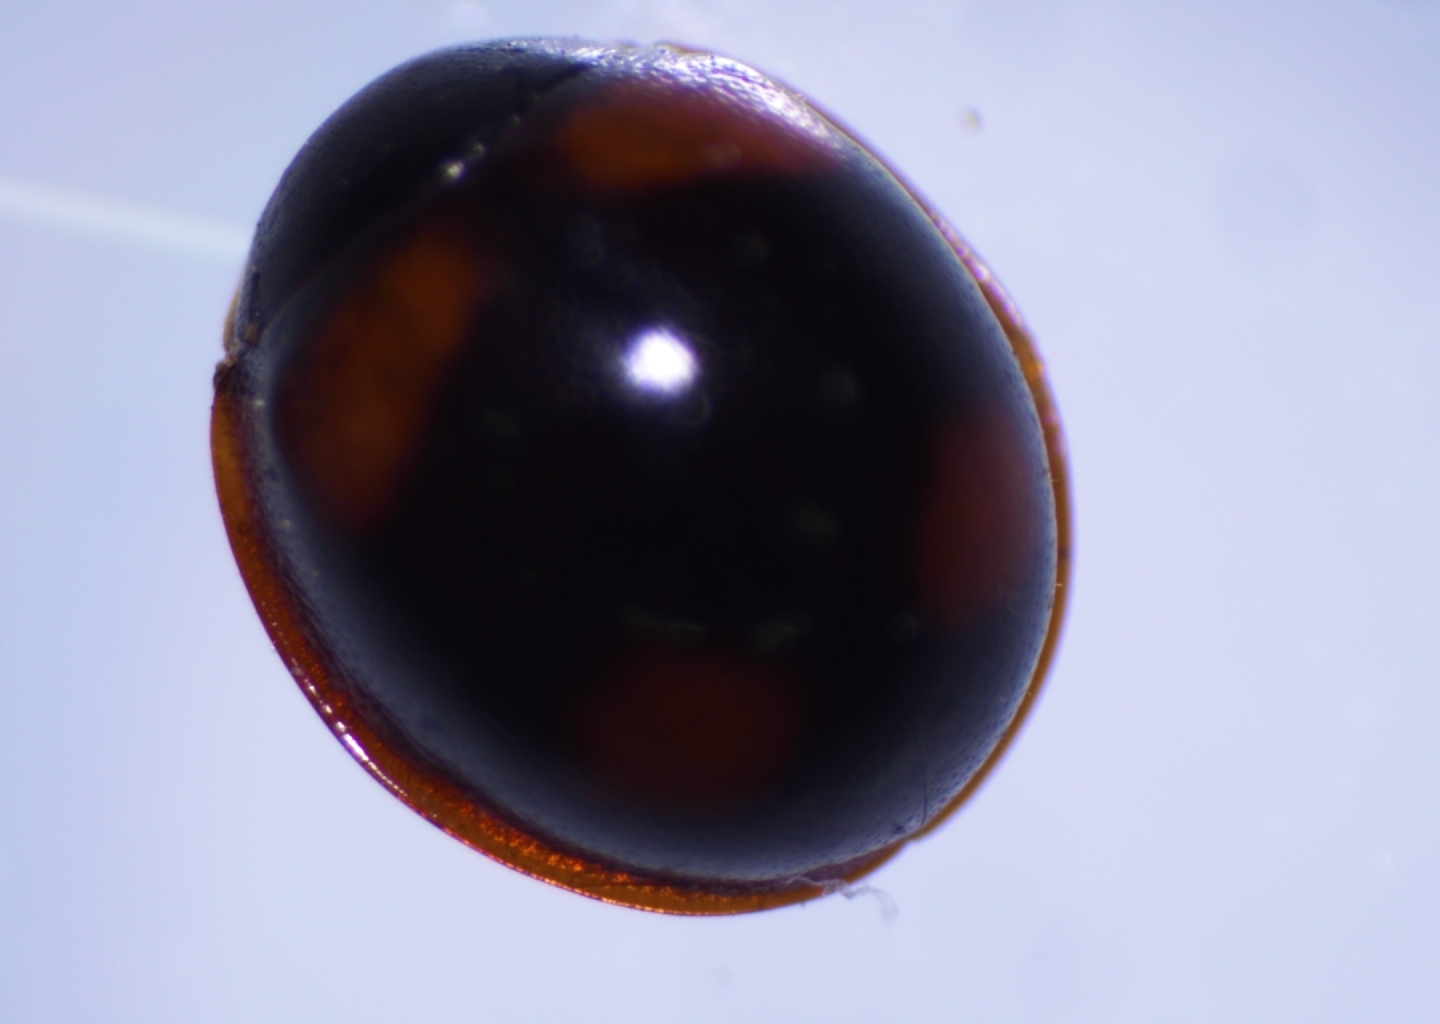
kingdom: Animalia
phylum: Arthropoda
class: Insecta
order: Coleoptera
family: Coccinellidae
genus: Sticholotis
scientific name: Sticholotis ruficeps
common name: Lady beetle
